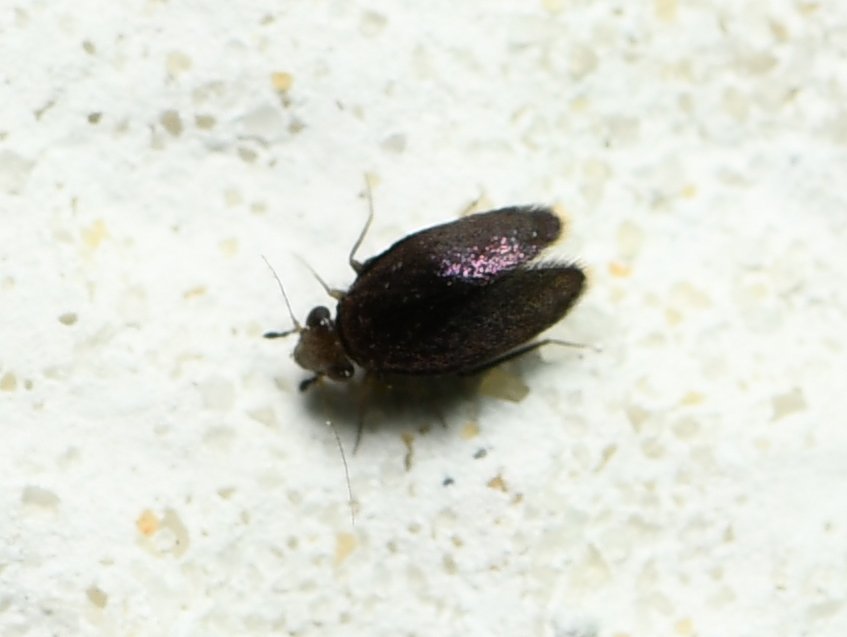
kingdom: Animalia
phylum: Arthropoda
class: Insecta
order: Psocodea
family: Lepidopsocidae
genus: Soa
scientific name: Soa flaviterminata
